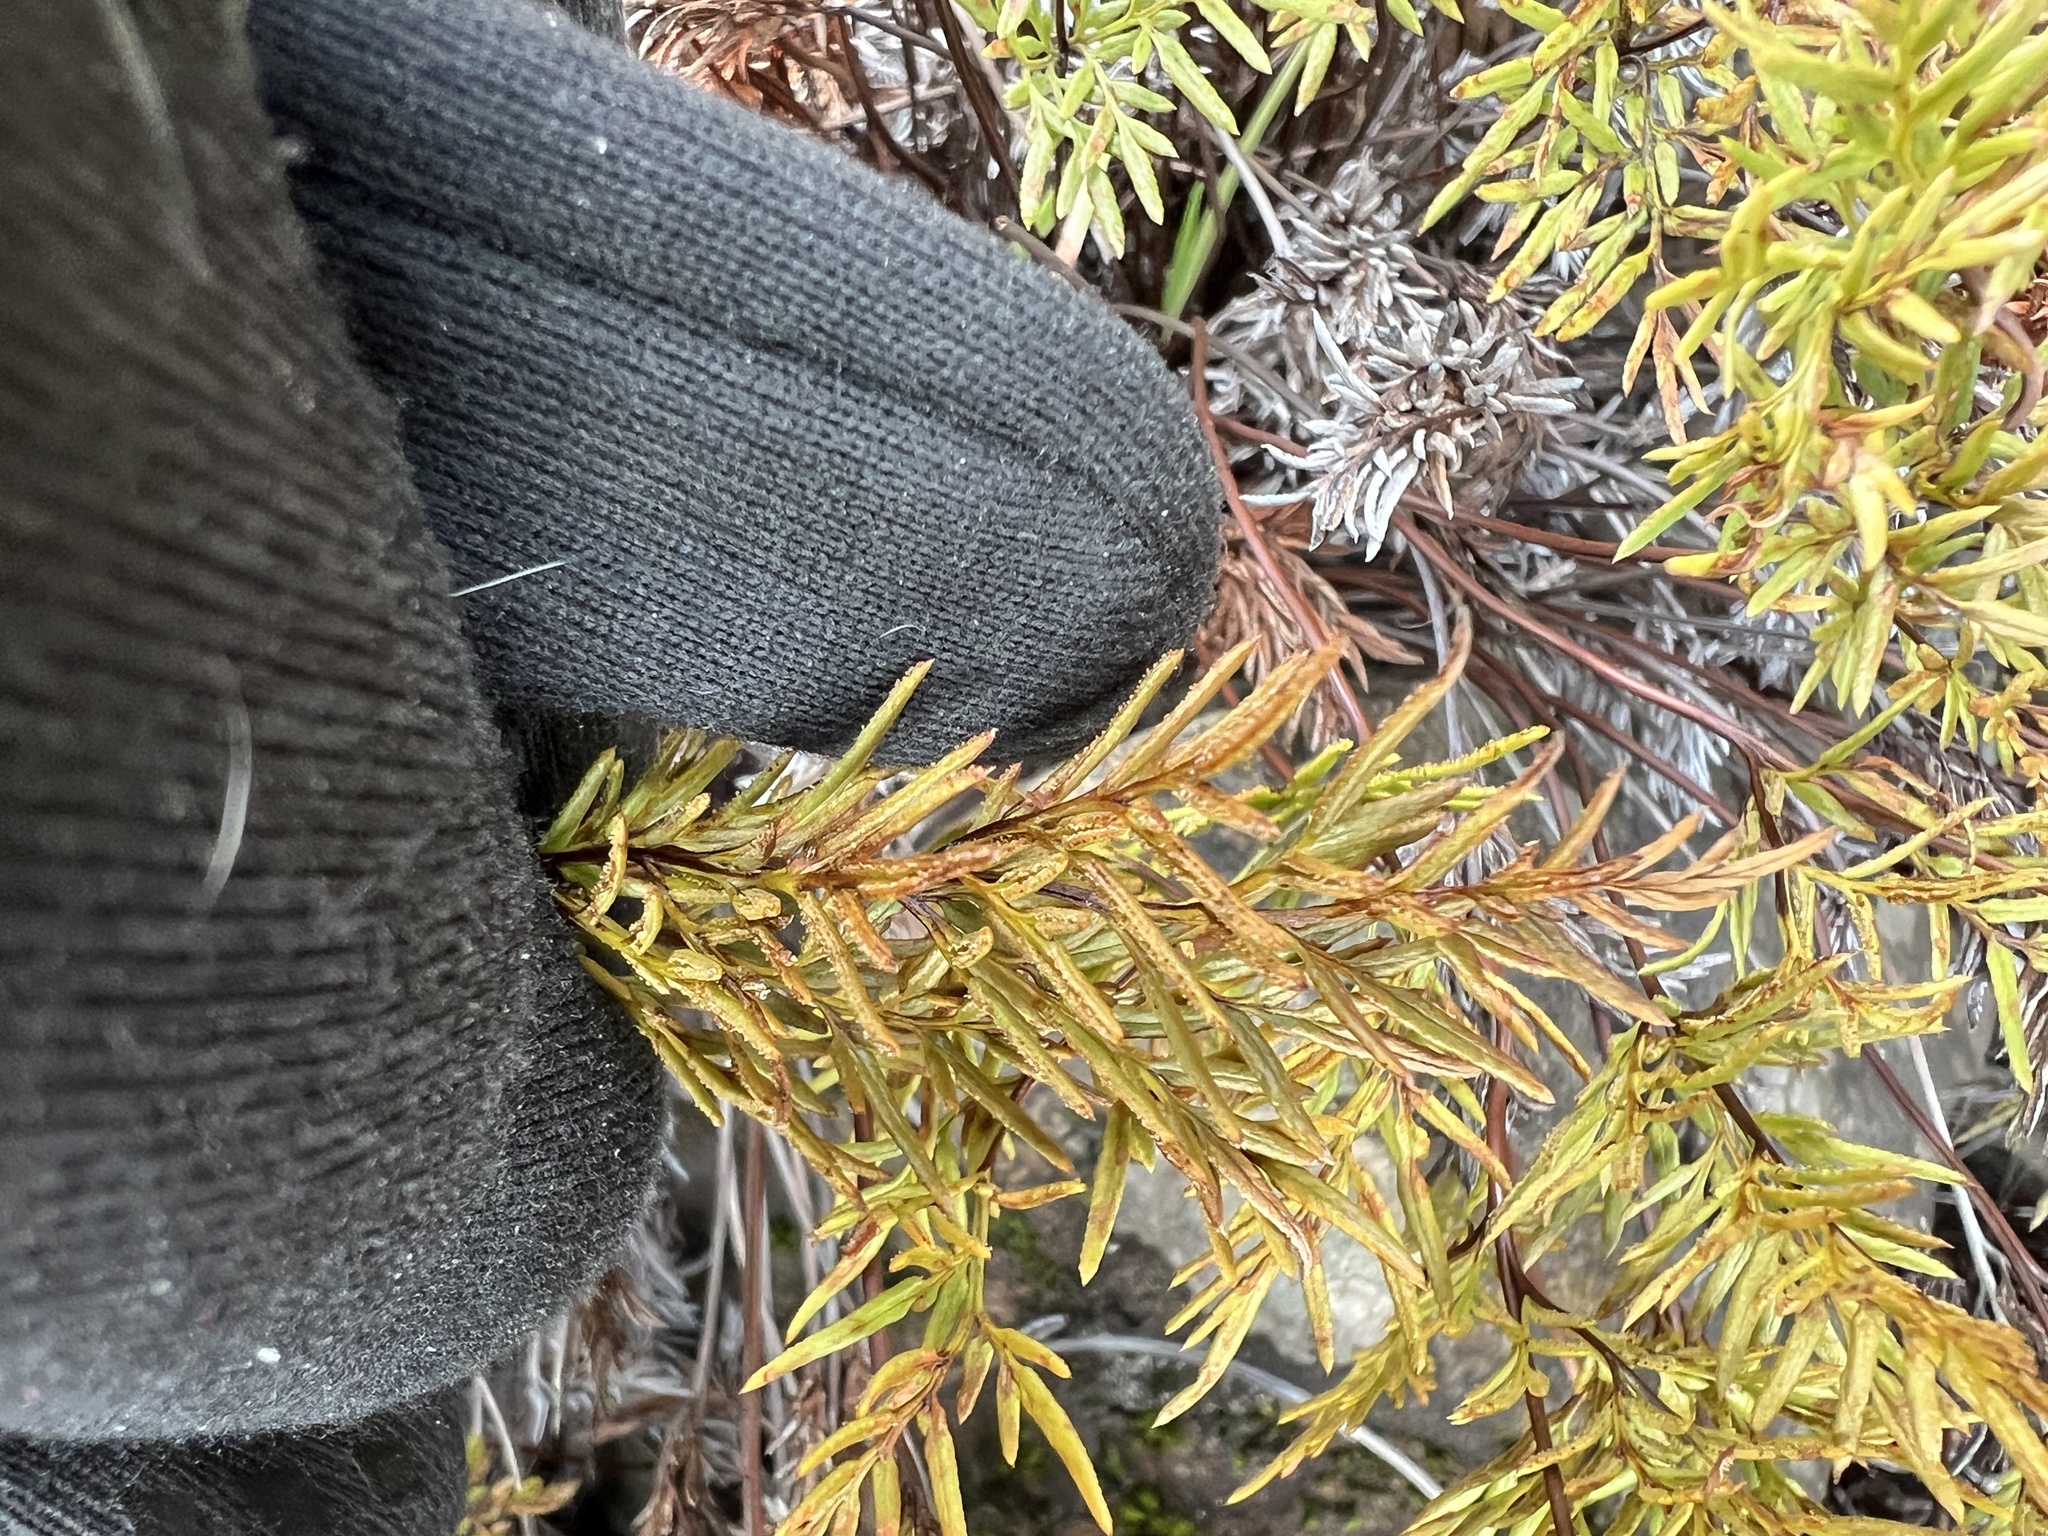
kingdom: Plantae
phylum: Tracheophyta
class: Polypodiopsida
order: Polypodiales
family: Pteridaceae
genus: Aspidotis
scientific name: Aspidotis densa
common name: Indian's dream
